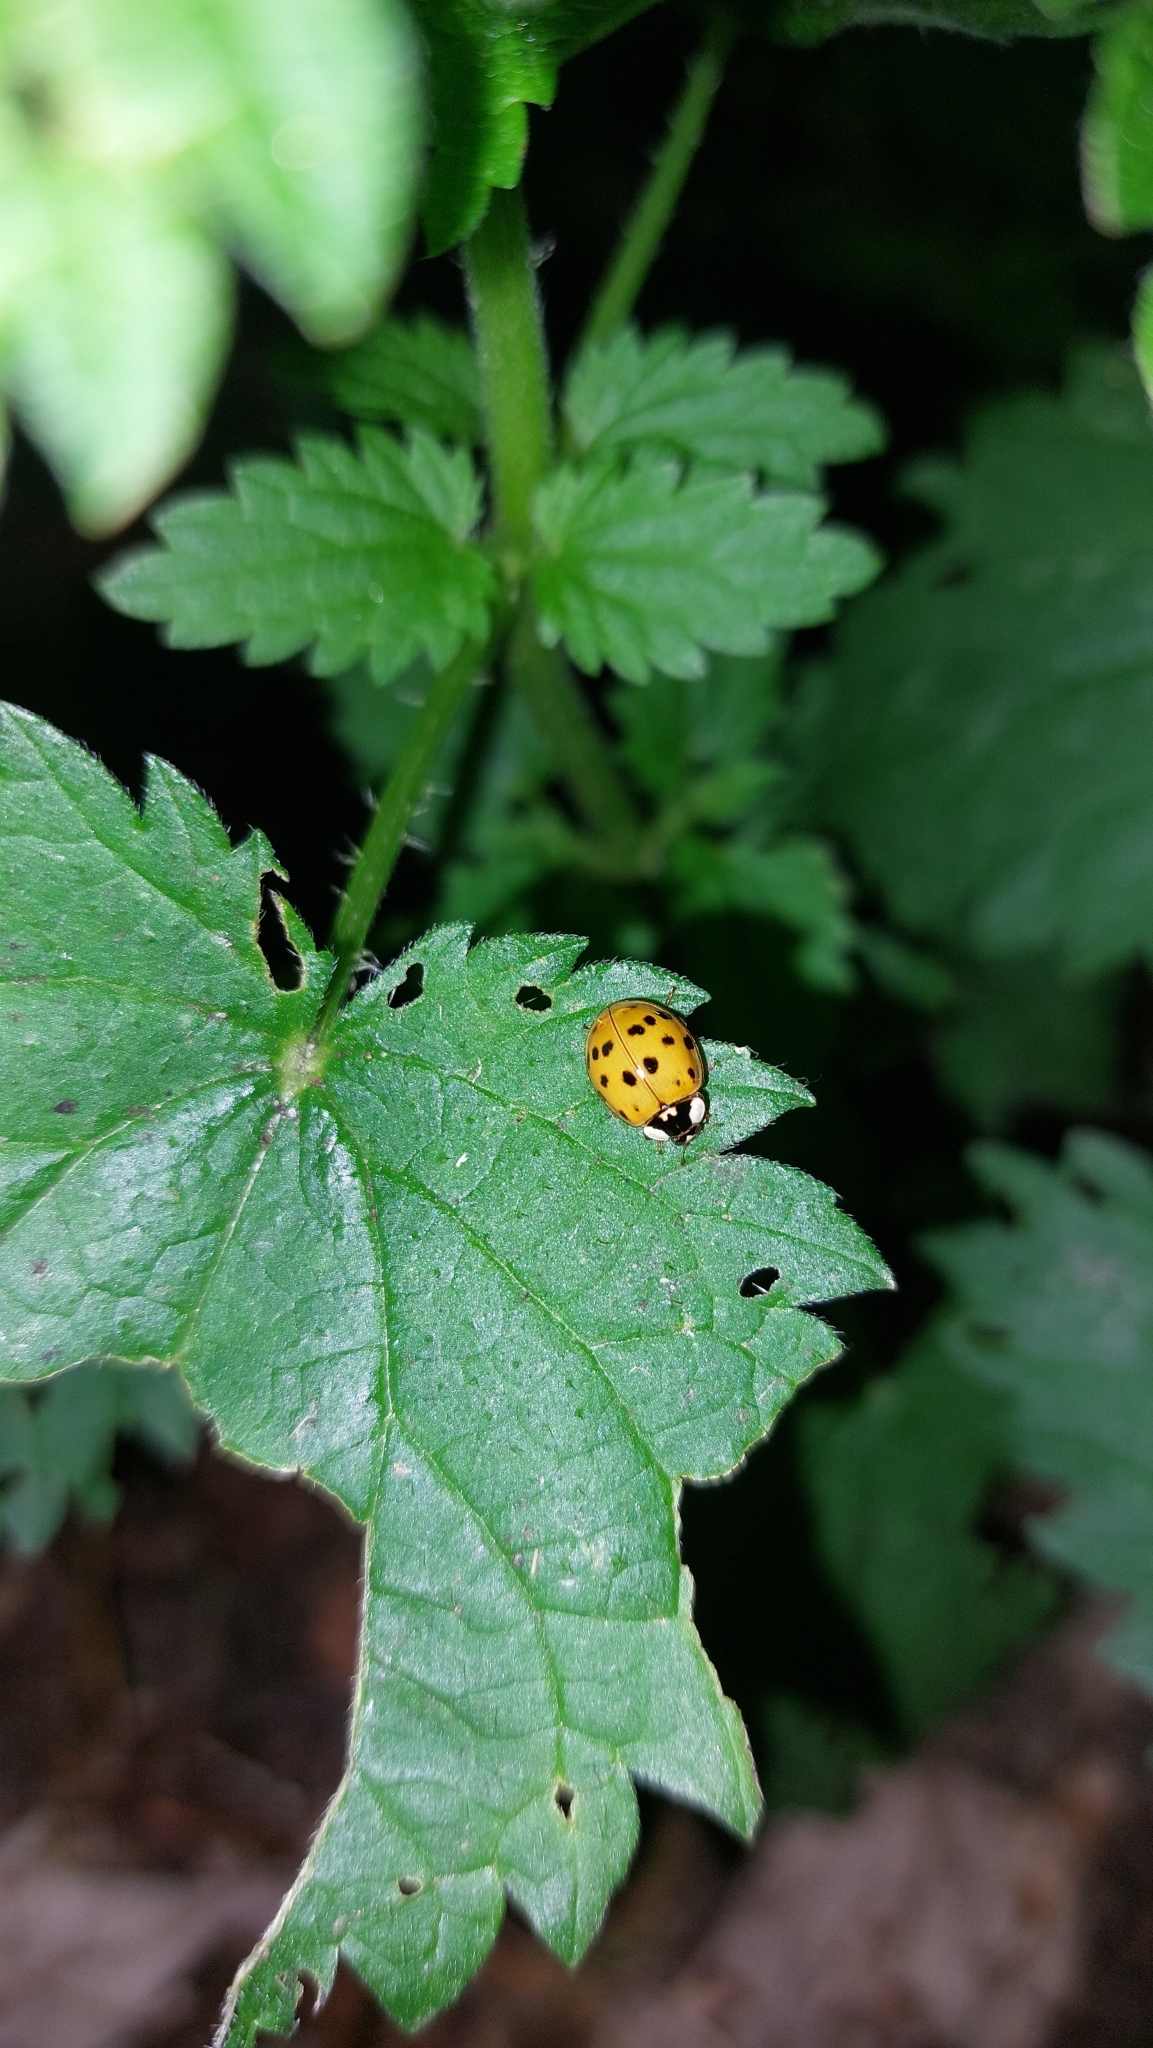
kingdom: Animalia
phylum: Arthropoda
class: Insecta
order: Coleoptera
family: Coccinellidae
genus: Harmonia
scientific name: Harmonia axyridis
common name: Harlequin ladybird
